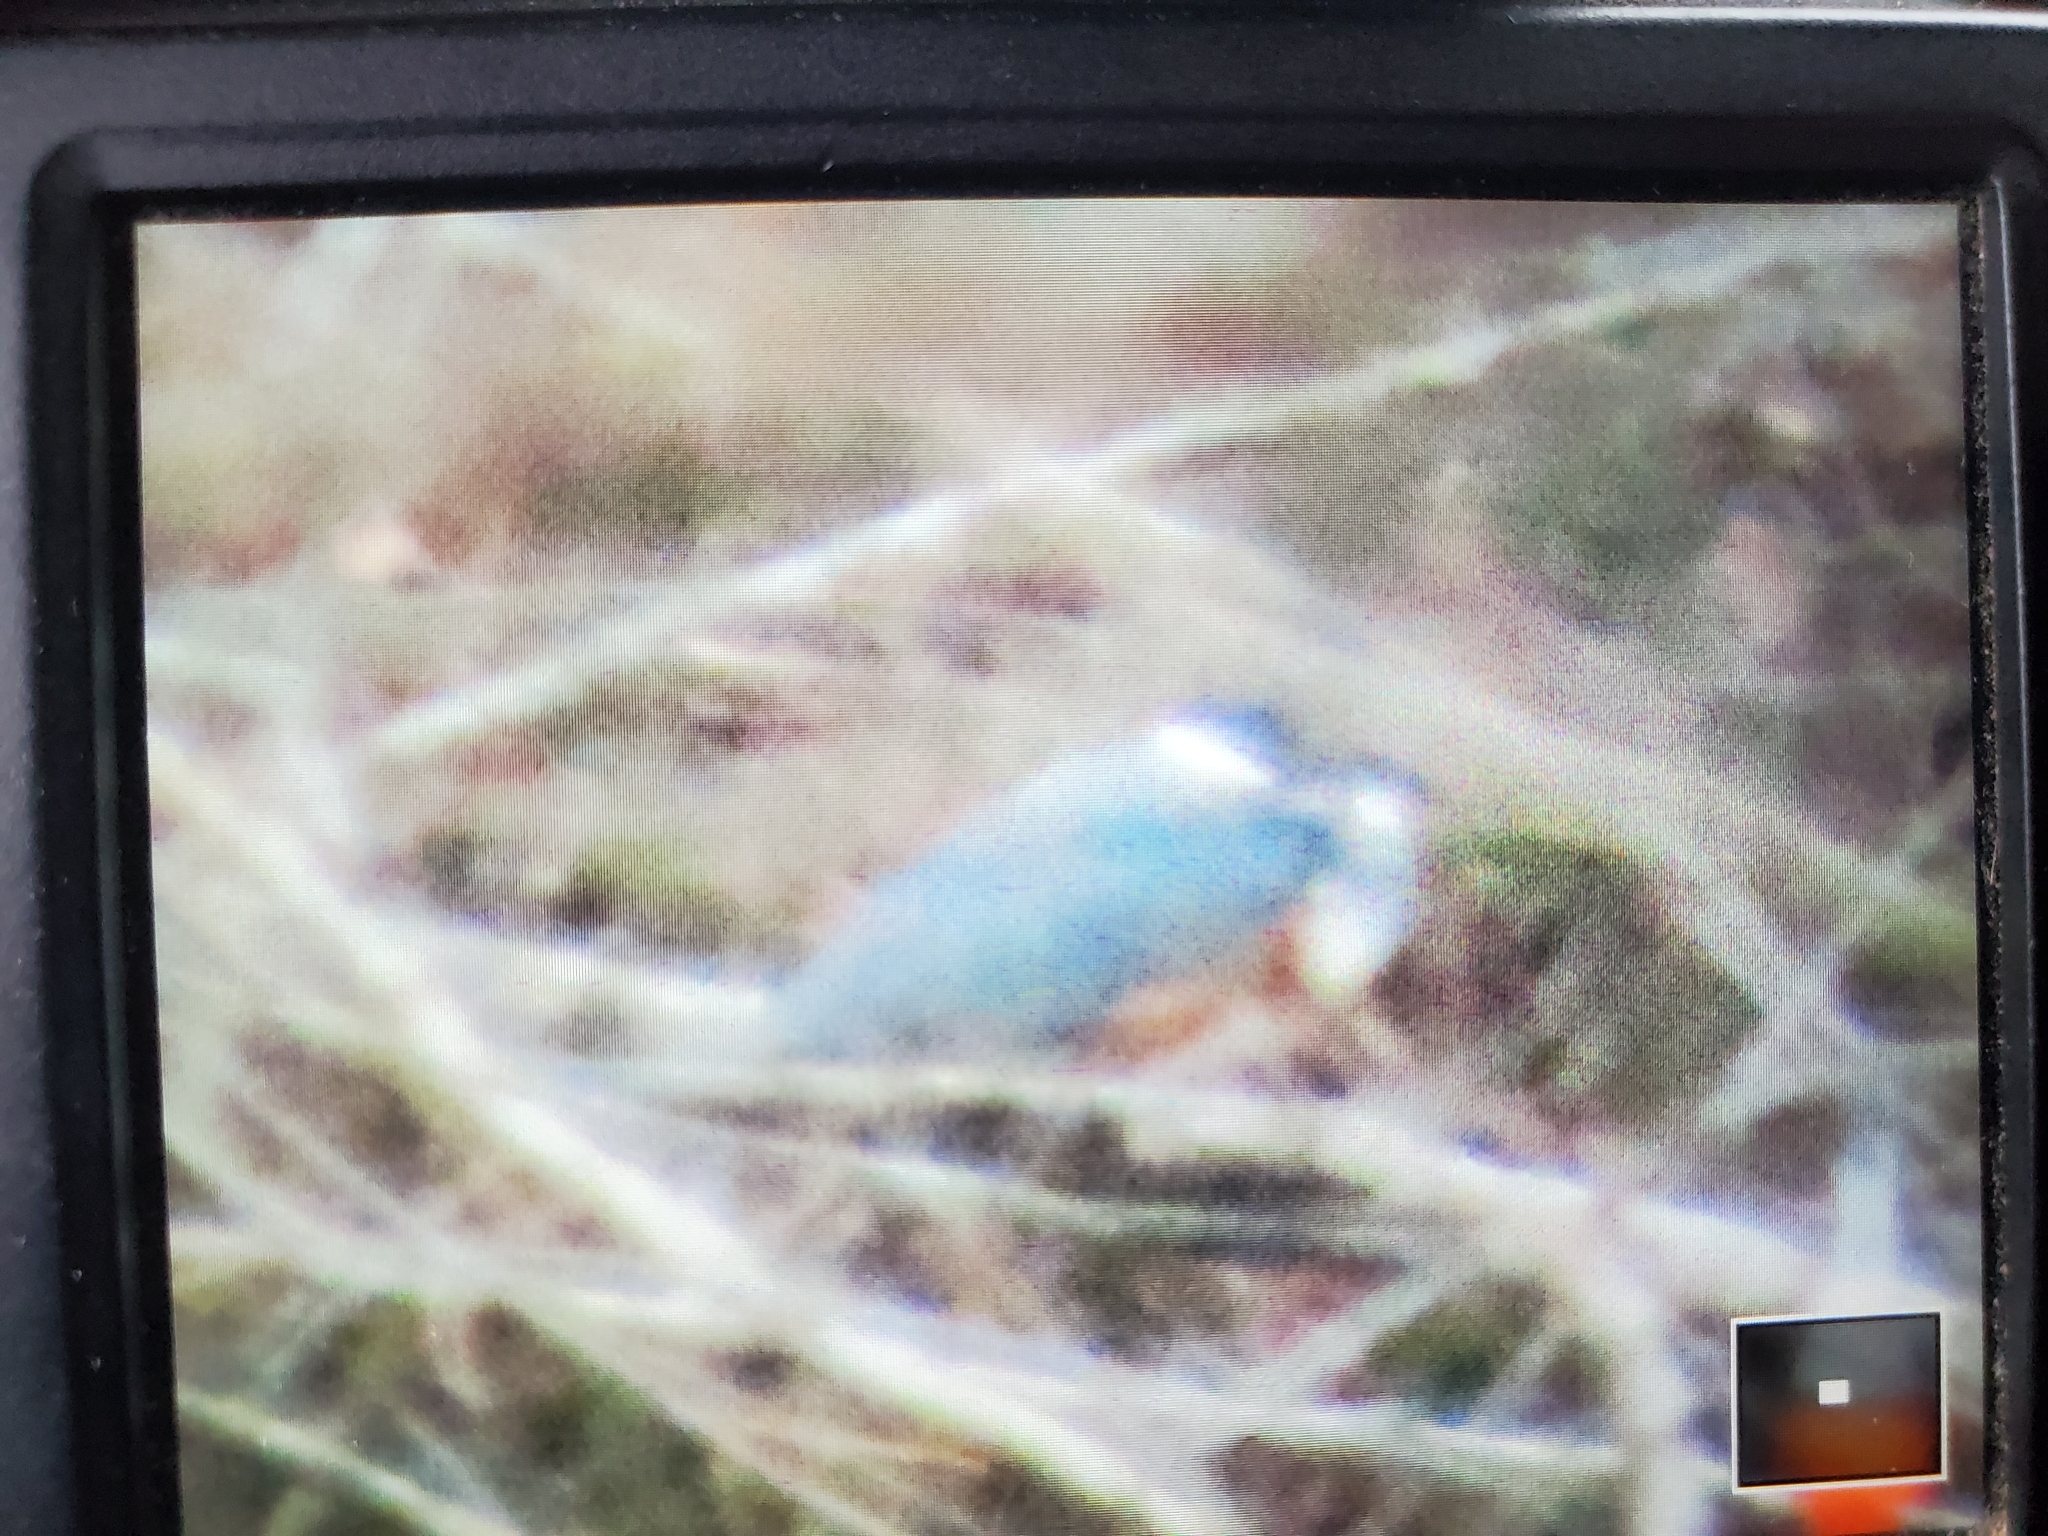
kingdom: Animalia
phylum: Chordata
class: Aves
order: Coraciiformes
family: Alcedinidae
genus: Megaceryle
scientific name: Megaceryle alcyon
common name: Belted kingfisher
